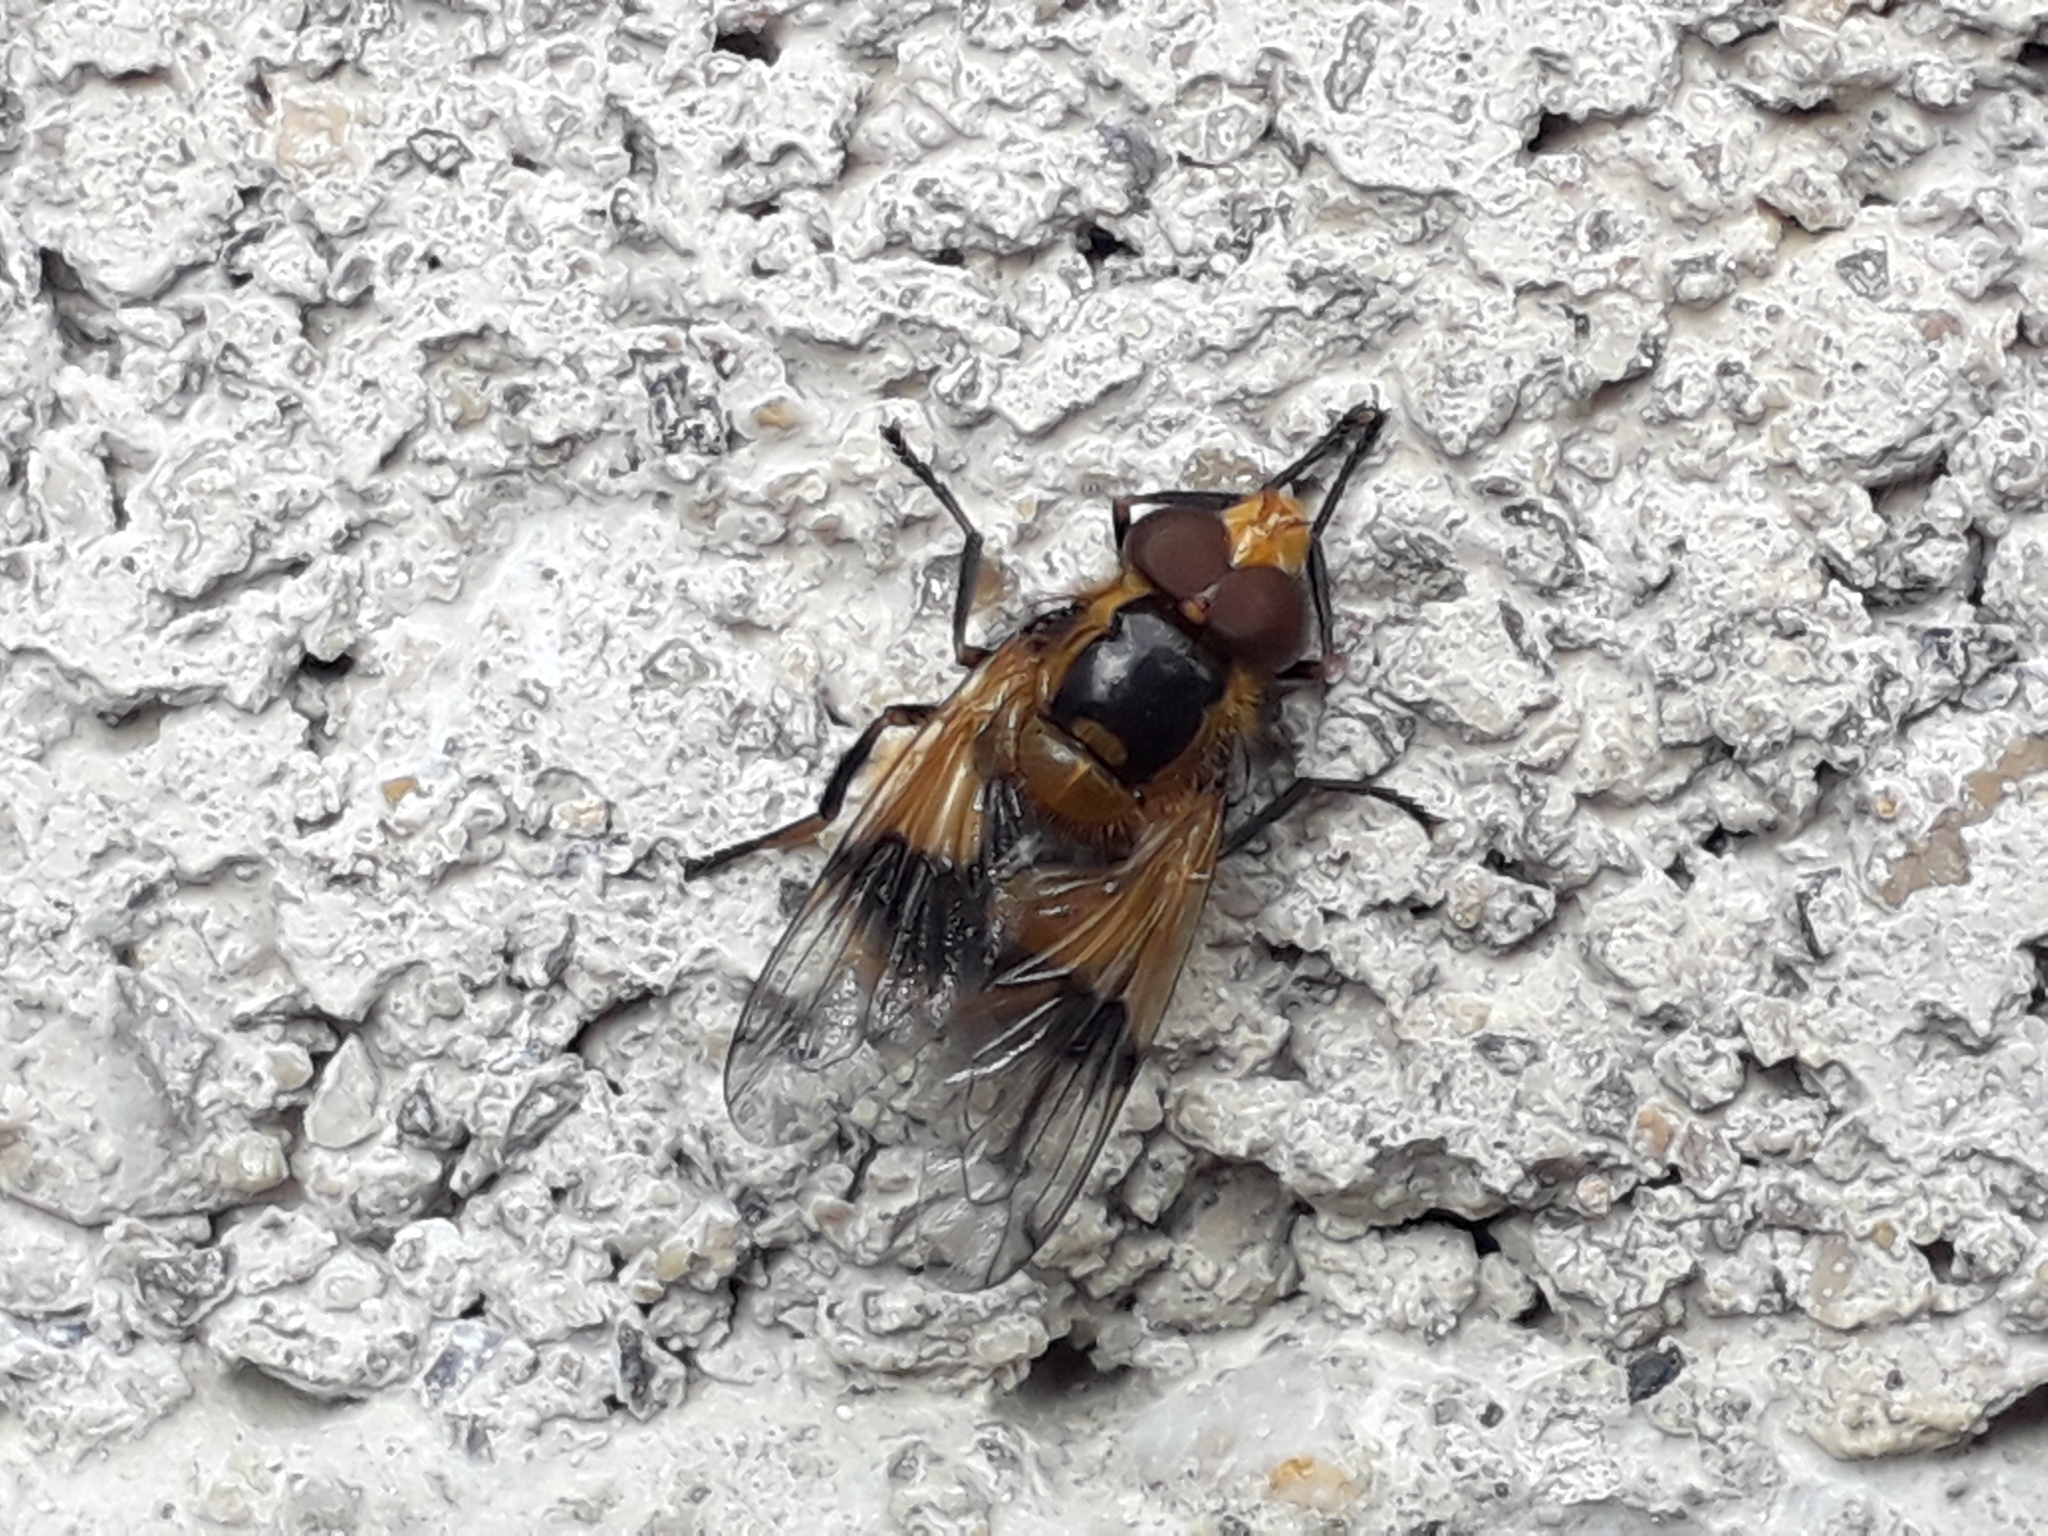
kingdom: Animalia
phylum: Arthropoda
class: Insecta
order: Diptera
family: Syrphidae
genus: Volucella
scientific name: Volucella inflata
